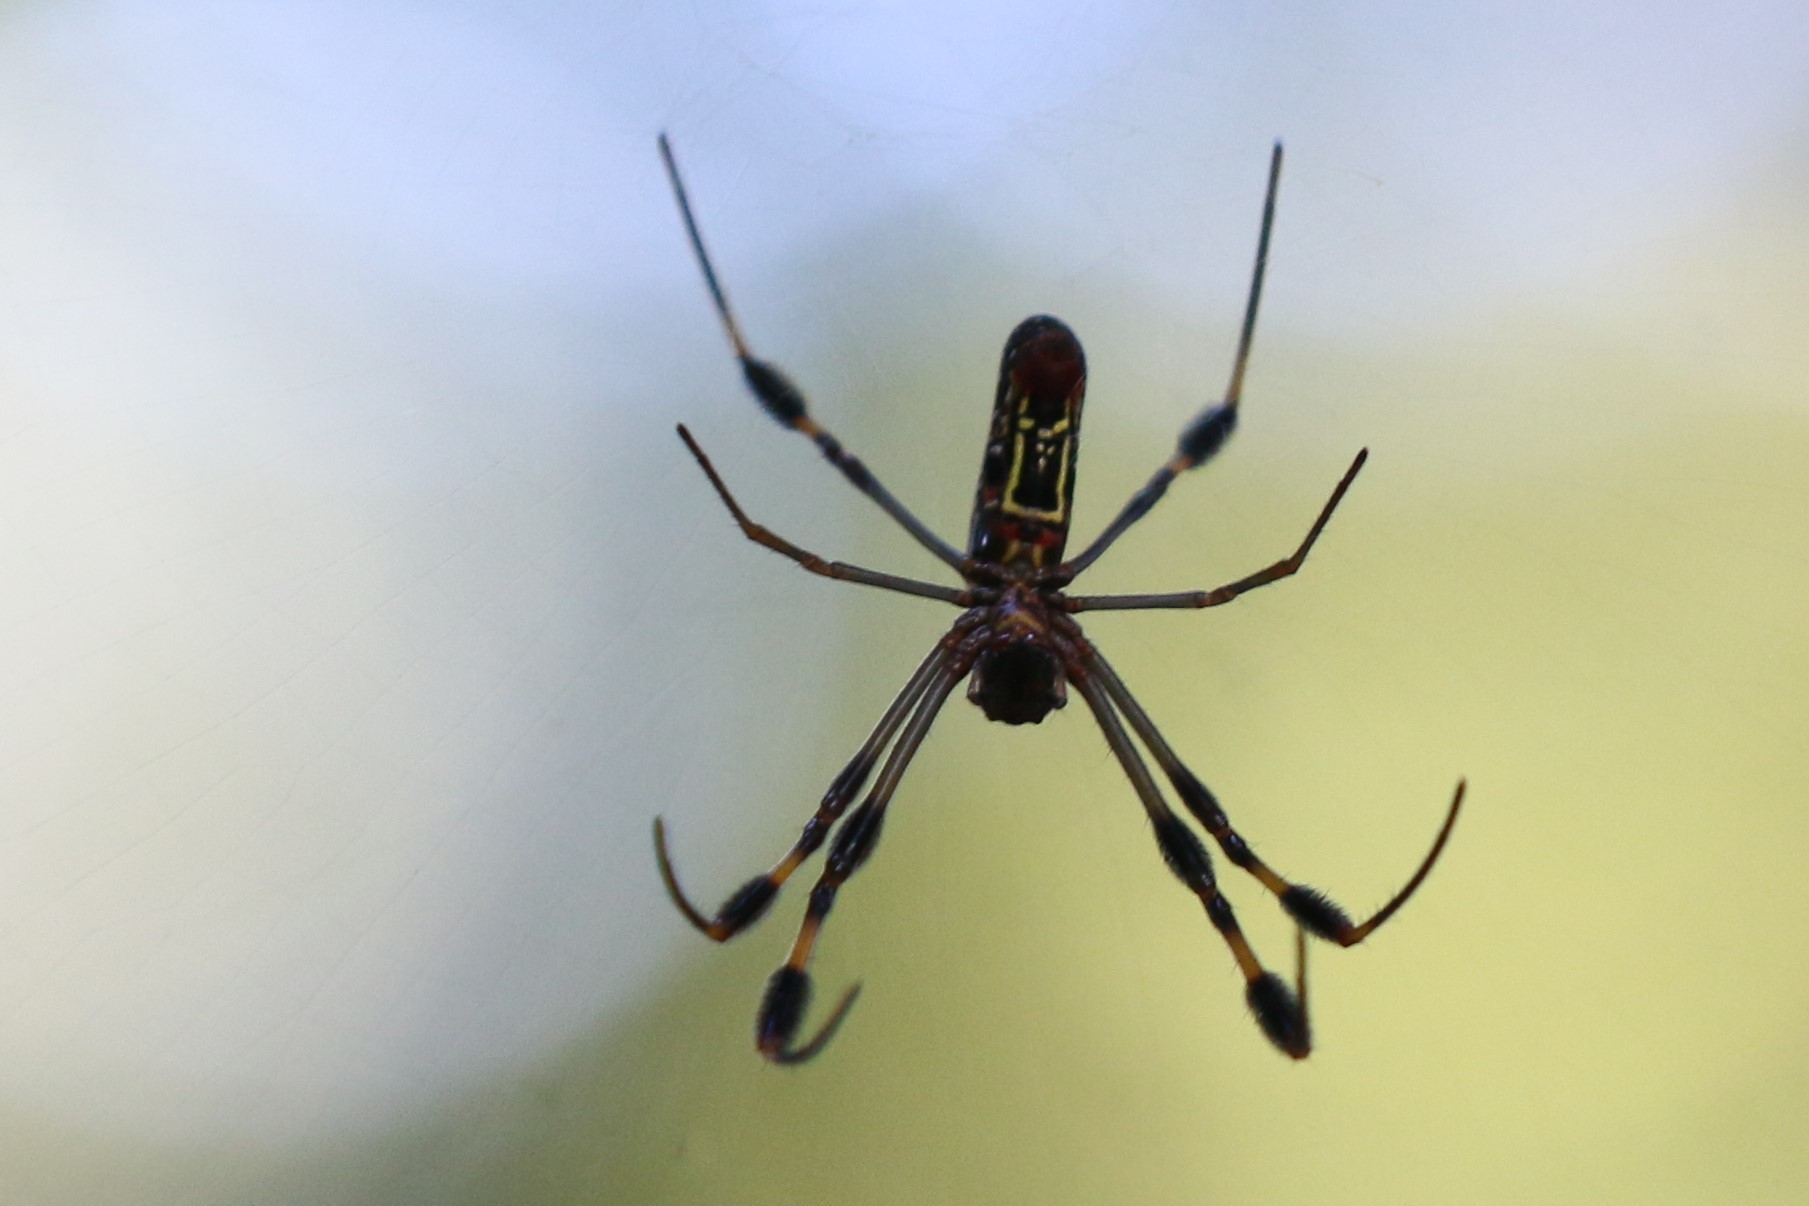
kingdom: Animalia
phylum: Arthropoda
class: Arachnida
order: Araneae
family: Araneidae
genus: Trichonephila
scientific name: Trichonephila clavipes
